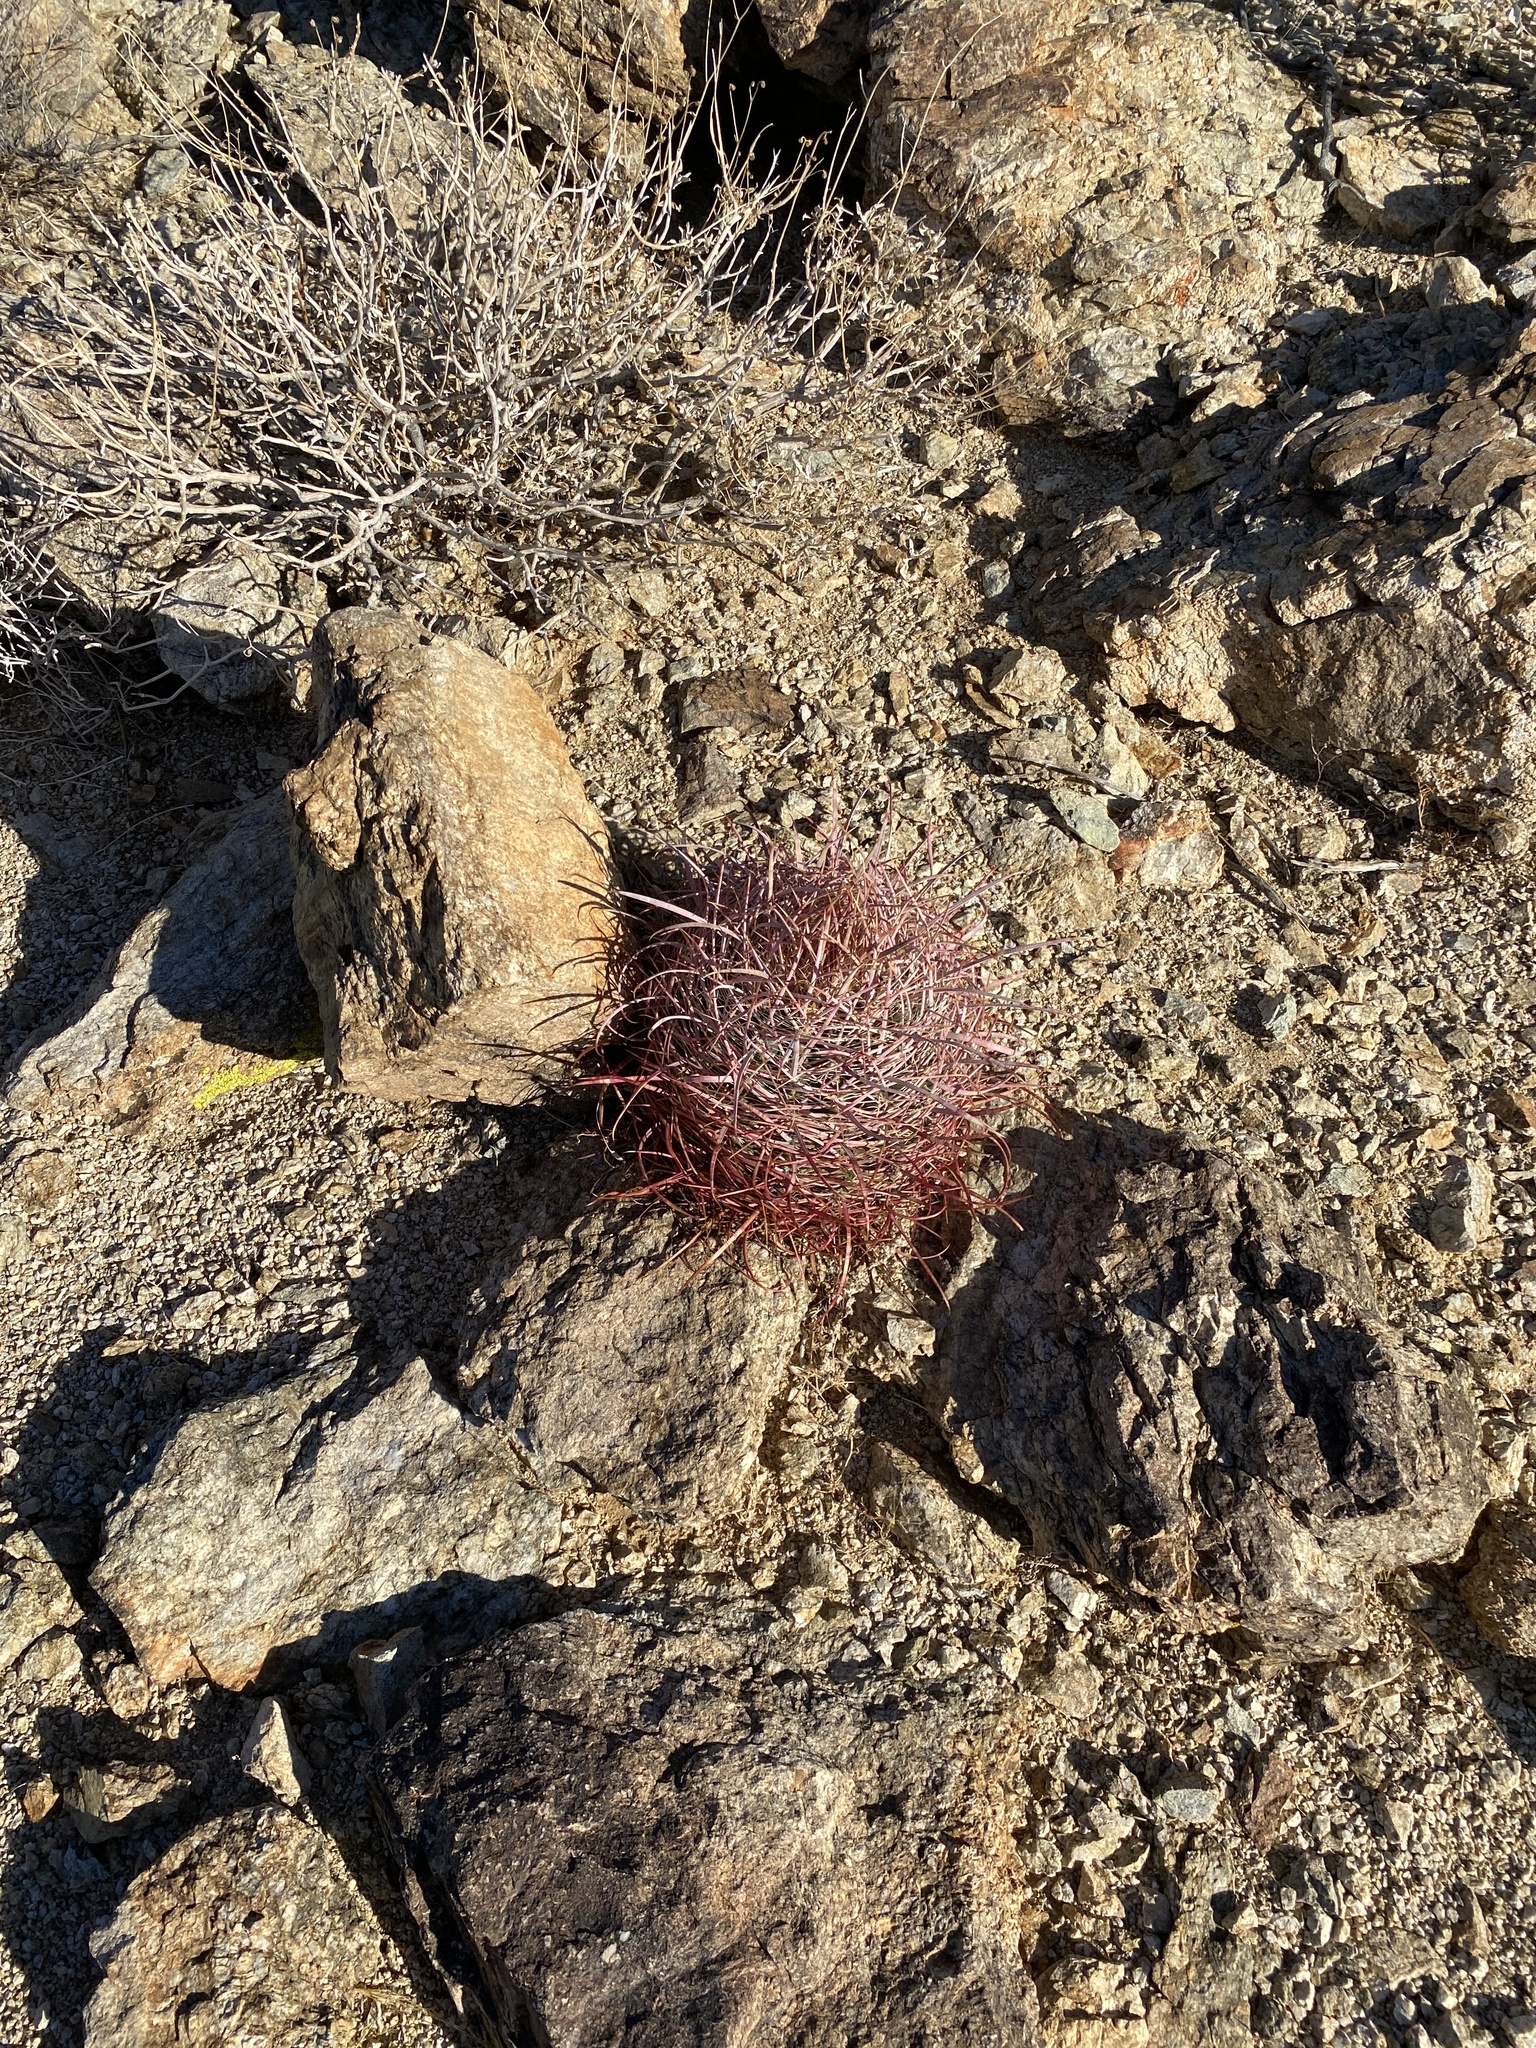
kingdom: Plantae
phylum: Tracheophyta
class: Magnoliopsida
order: Caryophyllales
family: Cactaceae
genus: Ferocactus
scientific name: Ferocactus cylindraceus
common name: California barrel cactus
